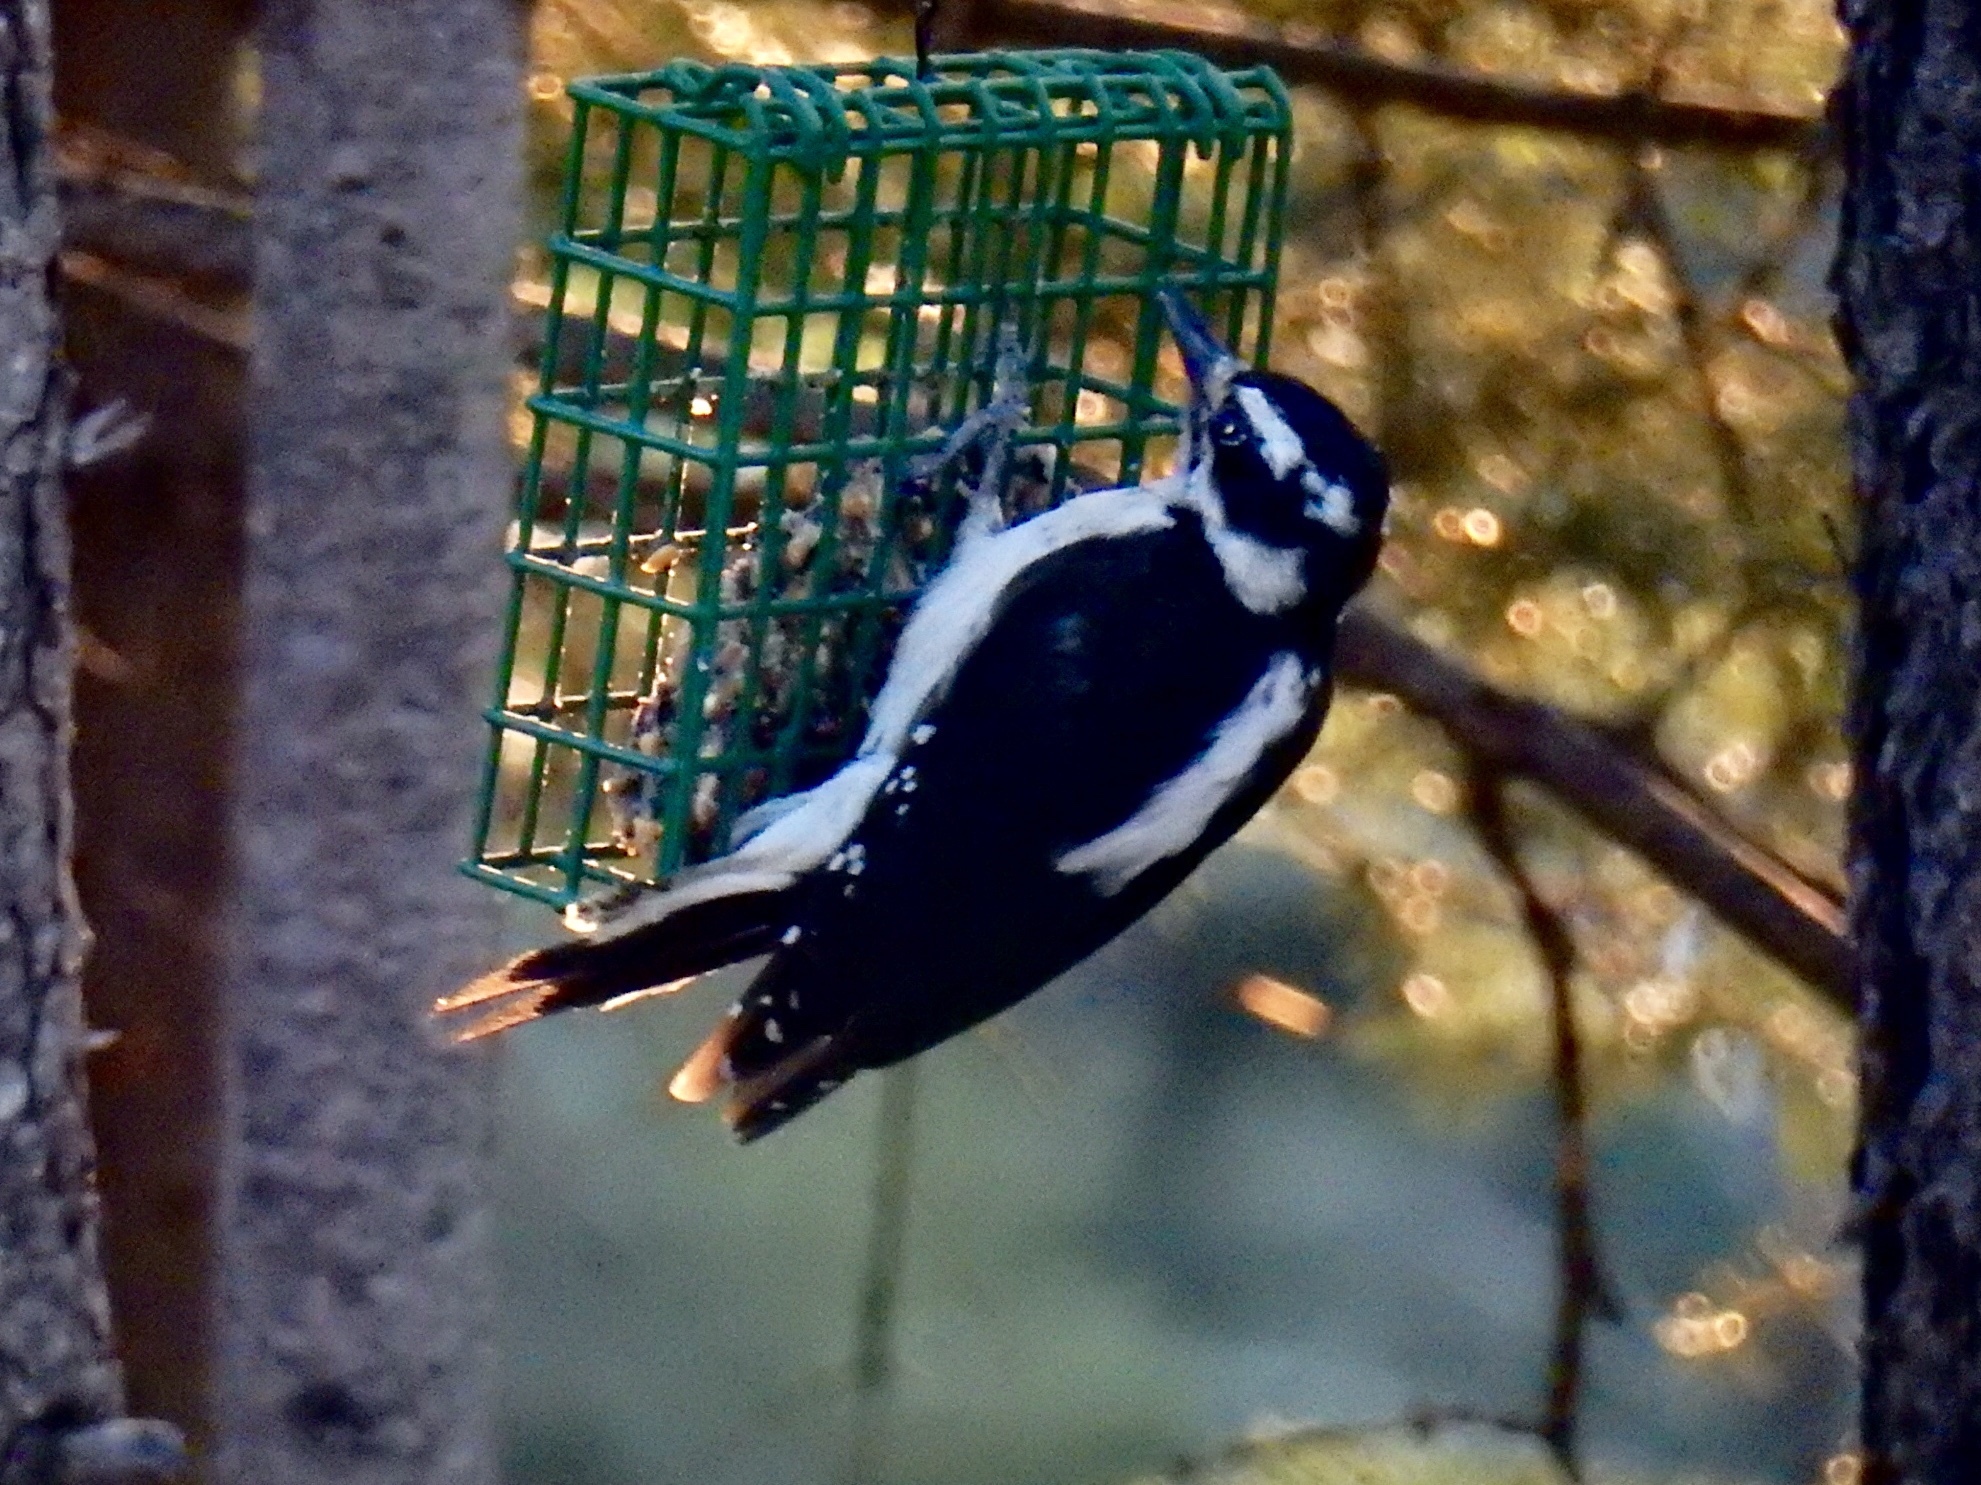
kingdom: Animalia
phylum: Chordata
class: Aves
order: Piciformes
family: Picidae
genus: Leuconotopicus
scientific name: Leuconotopicus villosus
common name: Hairy woodpecker
